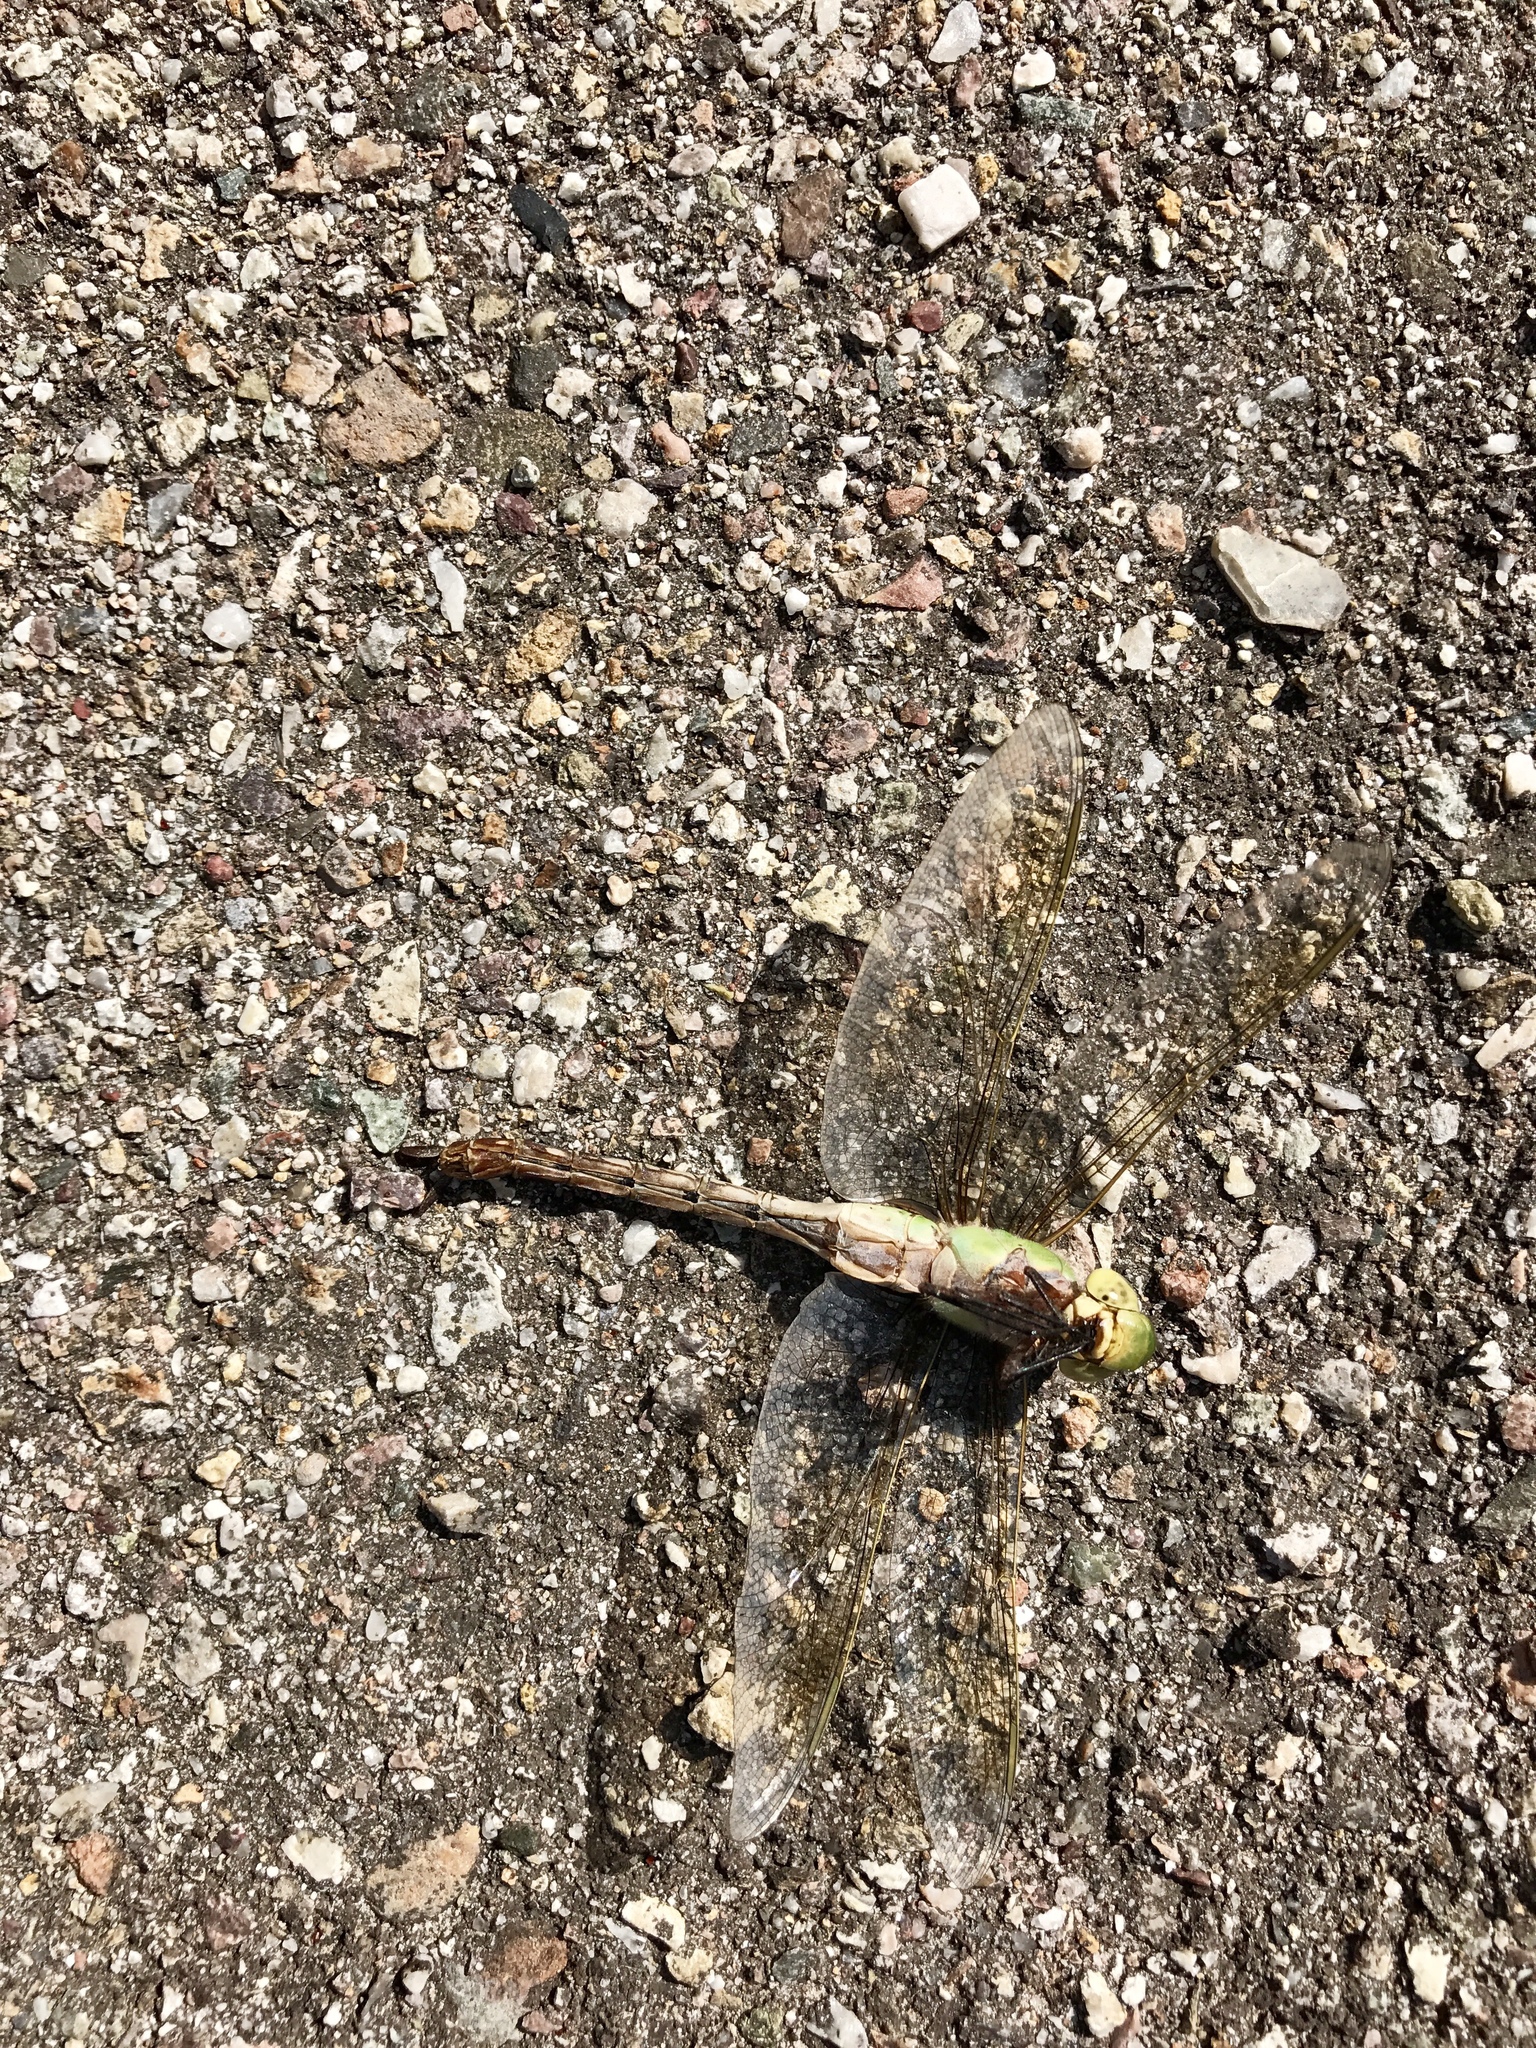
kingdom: Animalia
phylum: Arthropoda
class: Insecta
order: Odonata
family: Aeshnidae
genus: Anax
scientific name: Anax junius
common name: Common green darner
